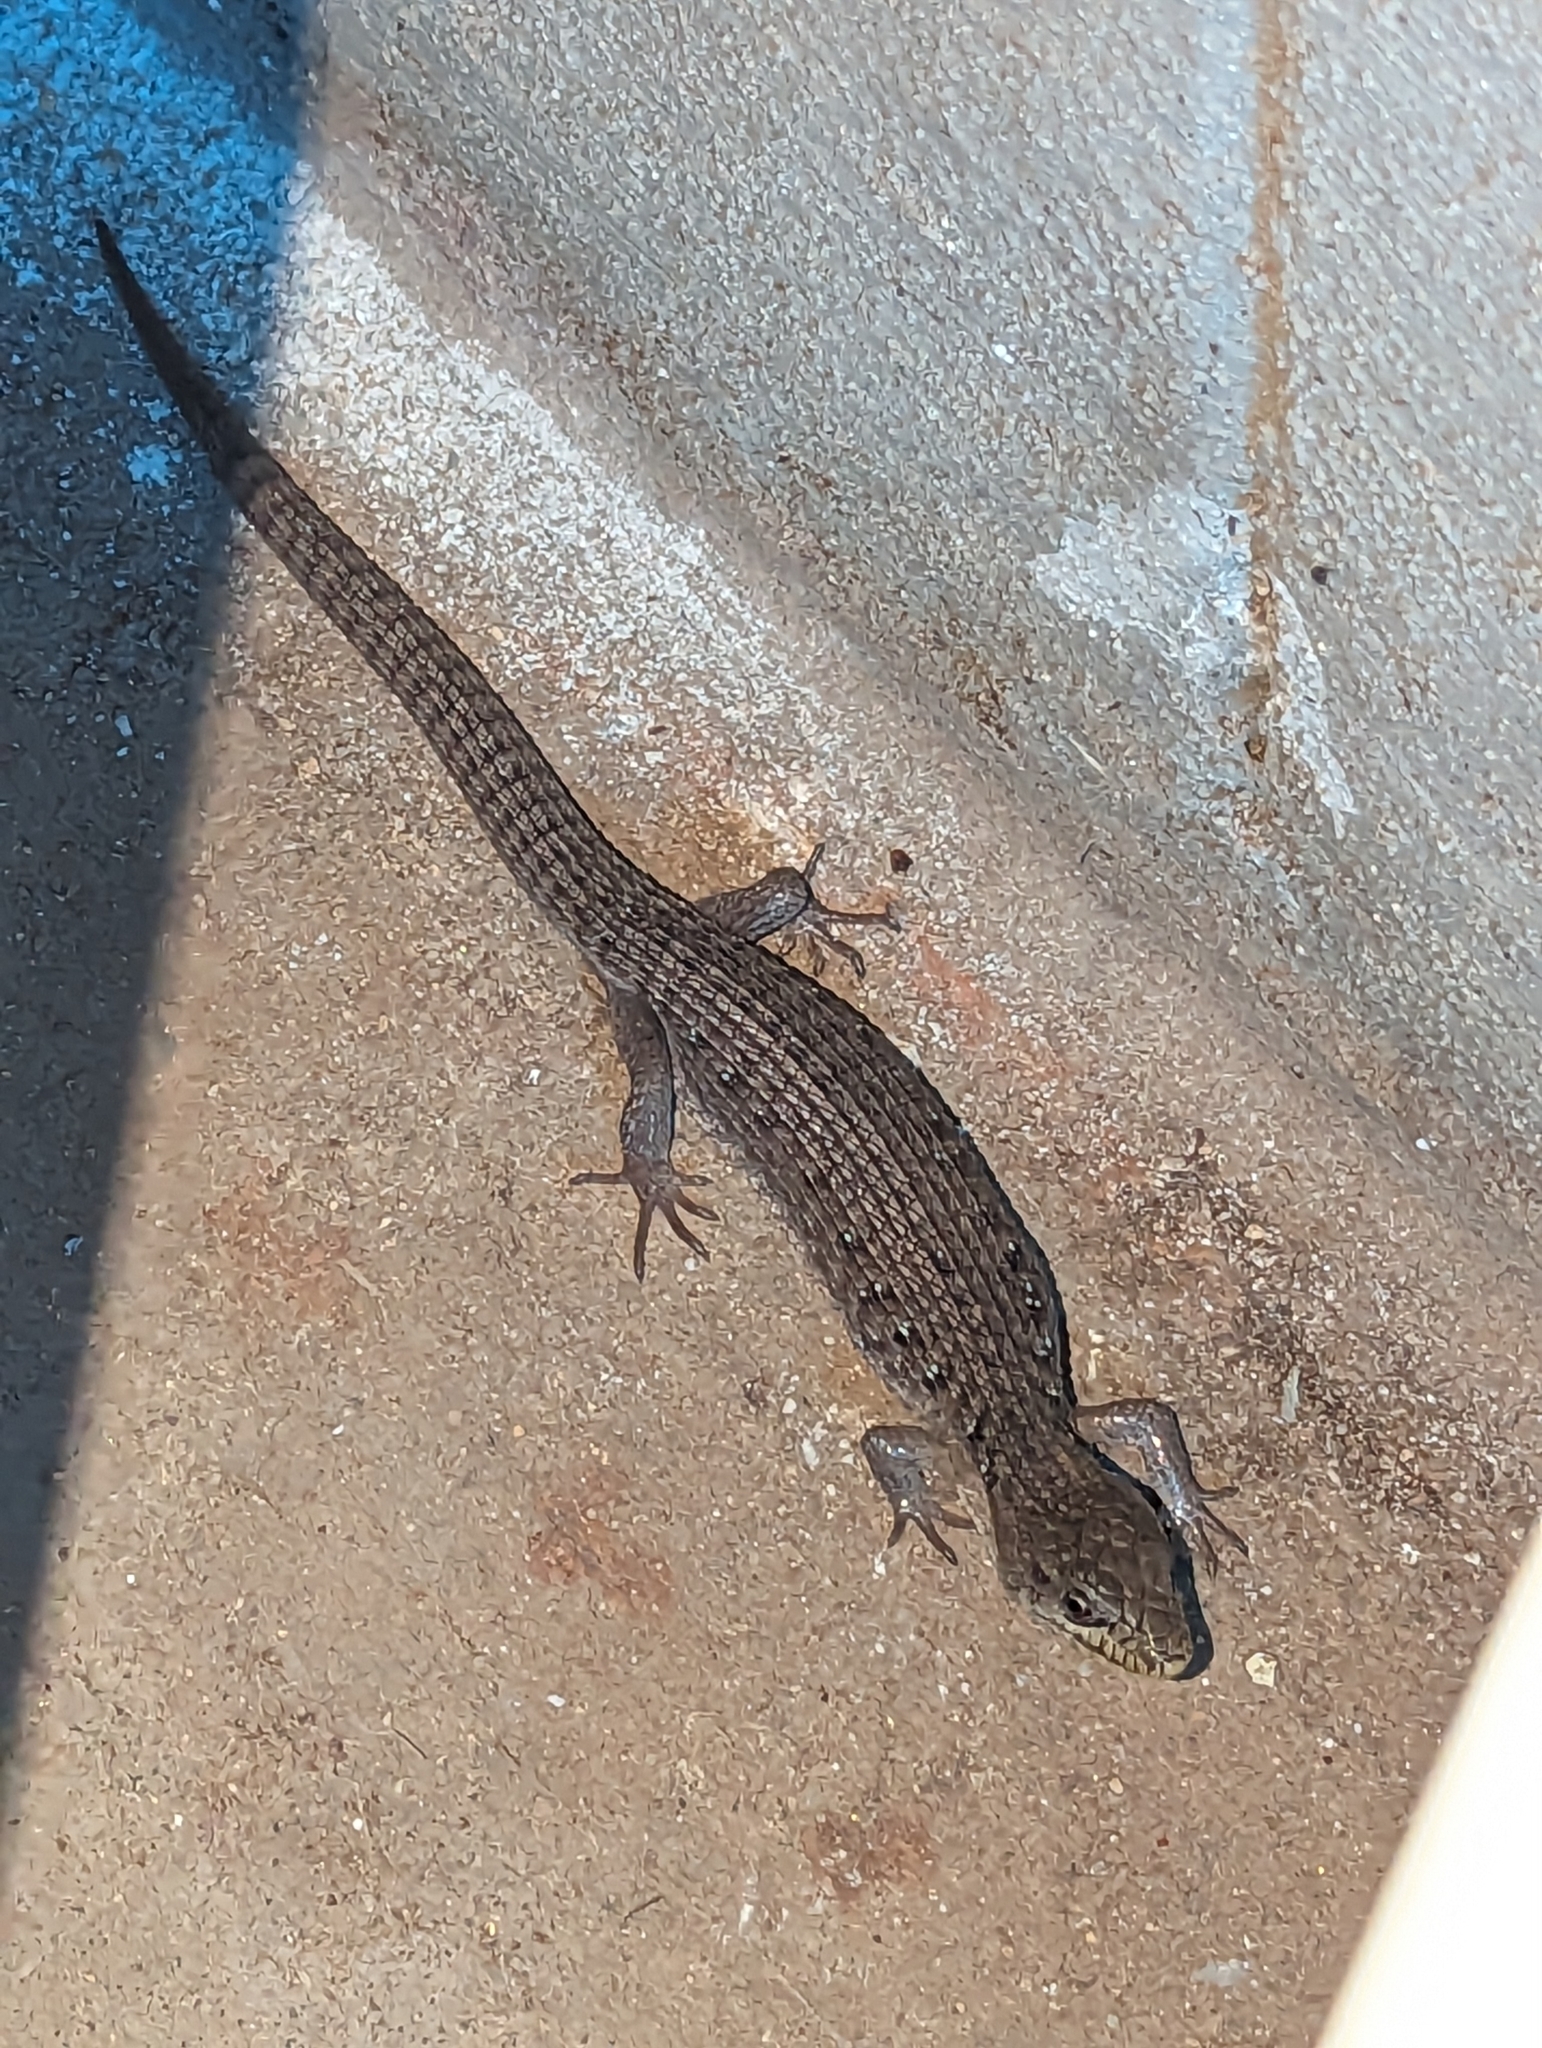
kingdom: Animalia
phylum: Chordata
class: Squamata
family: Anguidae
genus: Elgaria
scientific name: Elgaria coerulea
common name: Northern alligator lizard
